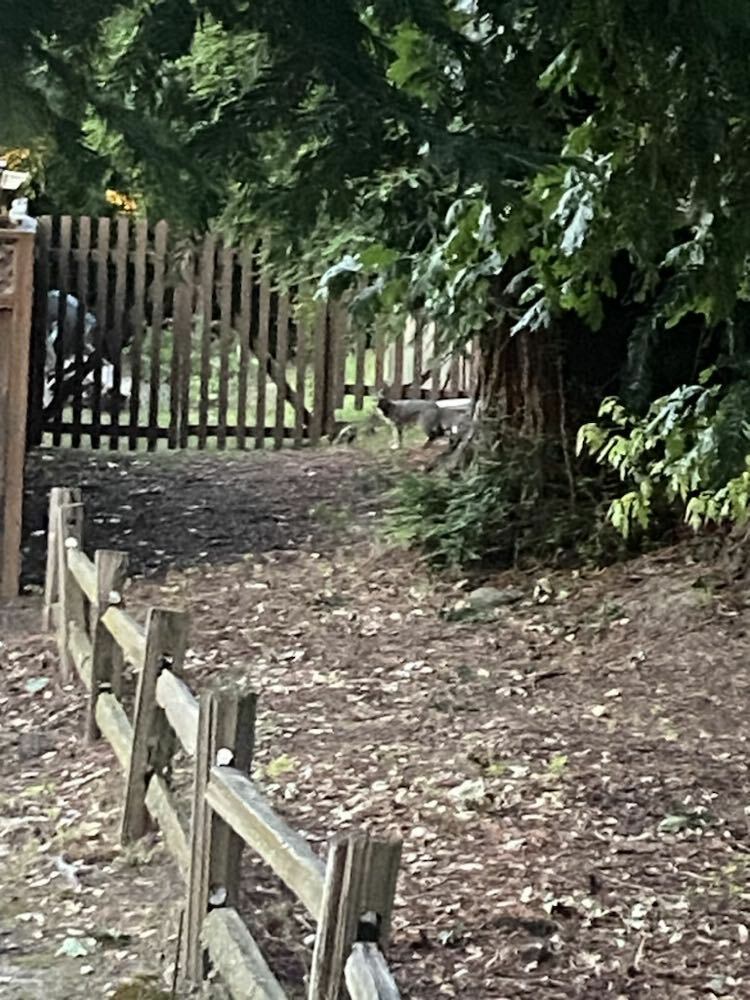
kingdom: Animalia
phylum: Chordata
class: Mammalia
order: Carnivora
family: Canidae
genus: Urocyon
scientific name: Urocyon cinereoargenteus
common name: Gray fox
